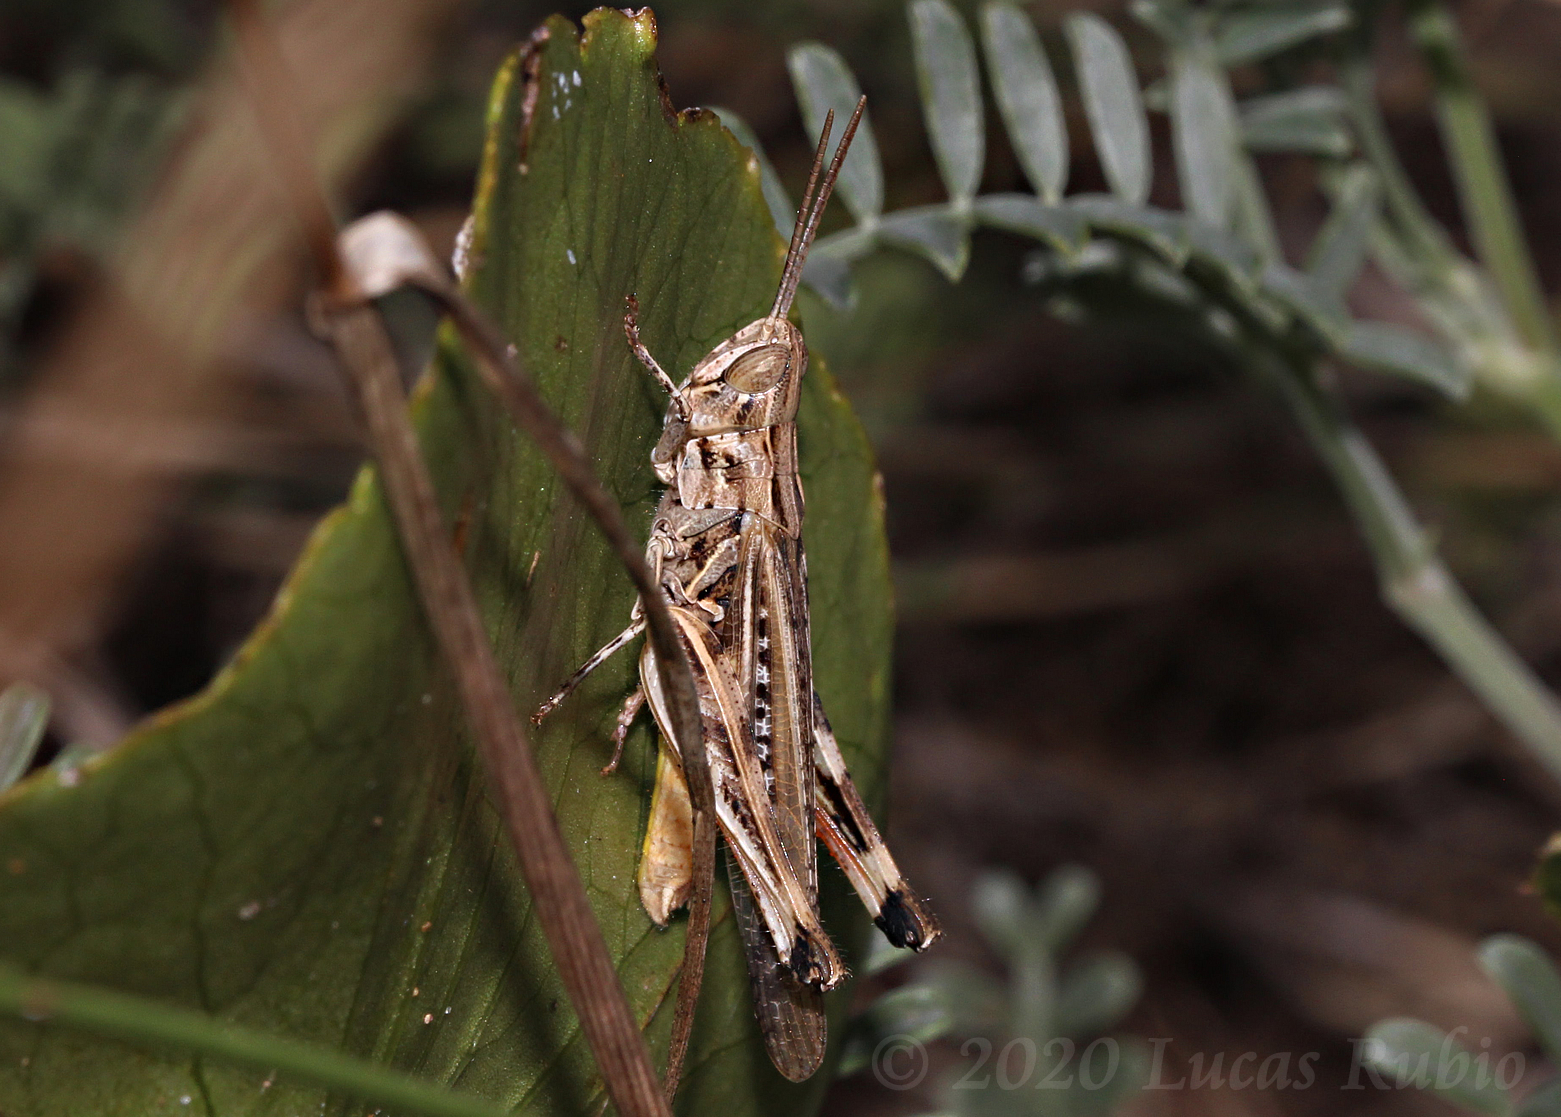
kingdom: Animalia
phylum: Arthropoda
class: Insecta
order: Orthoptera
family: Acrididae
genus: Scyllinula
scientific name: Scyllinula signatipennis
